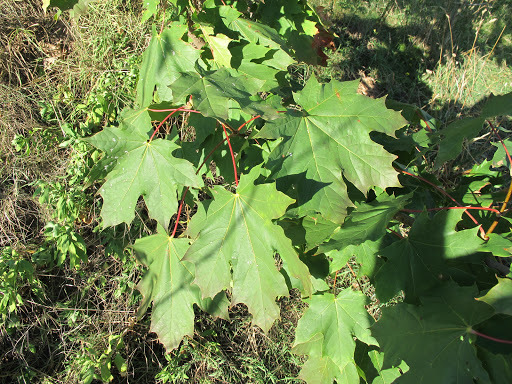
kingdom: Plantae
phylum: Tracheophyta
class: Magnoliopsida
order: Sapindales
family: Sapindaceae
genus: Acer
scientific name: Acer platanoides
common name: Norway maple
